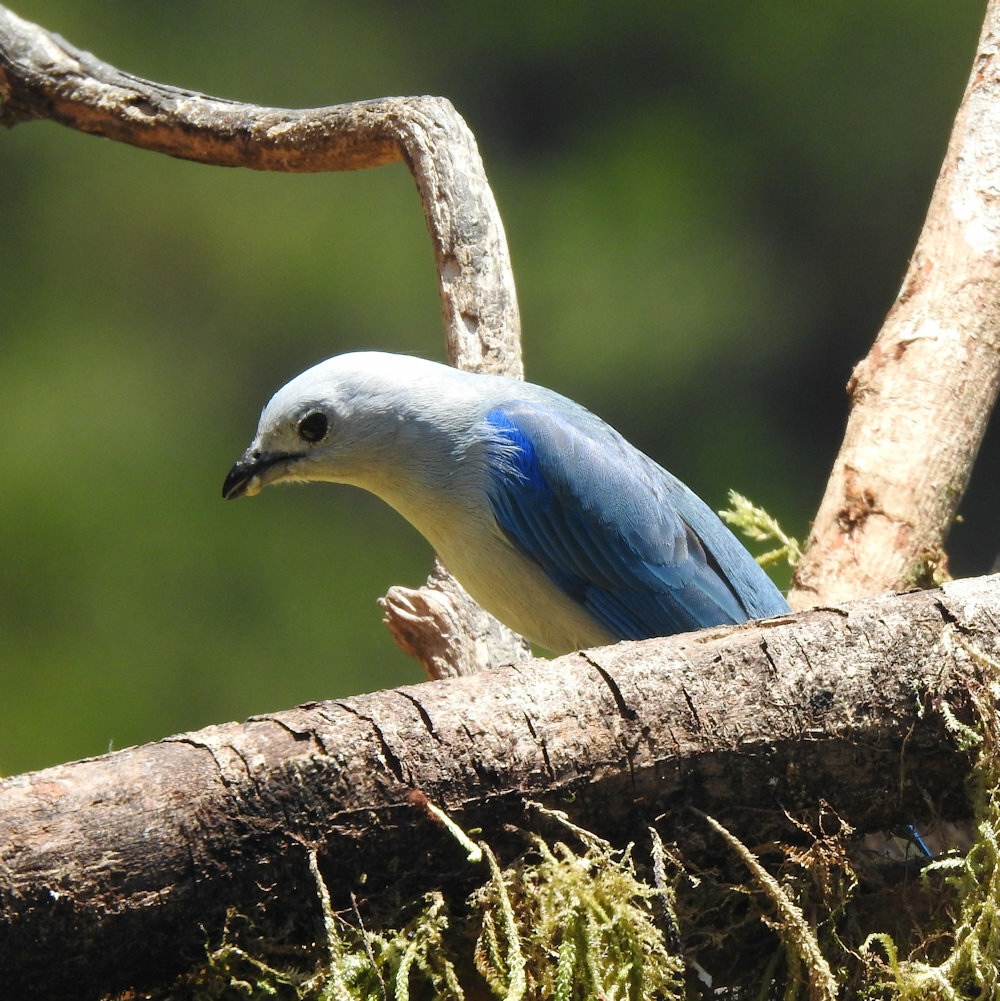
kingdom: Animalia
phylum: Chordata
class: Aves
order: Passeriformes
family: Thraupidae
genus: Thraupis
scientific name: Thraupis episcopus
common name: Blue-grey tanager
